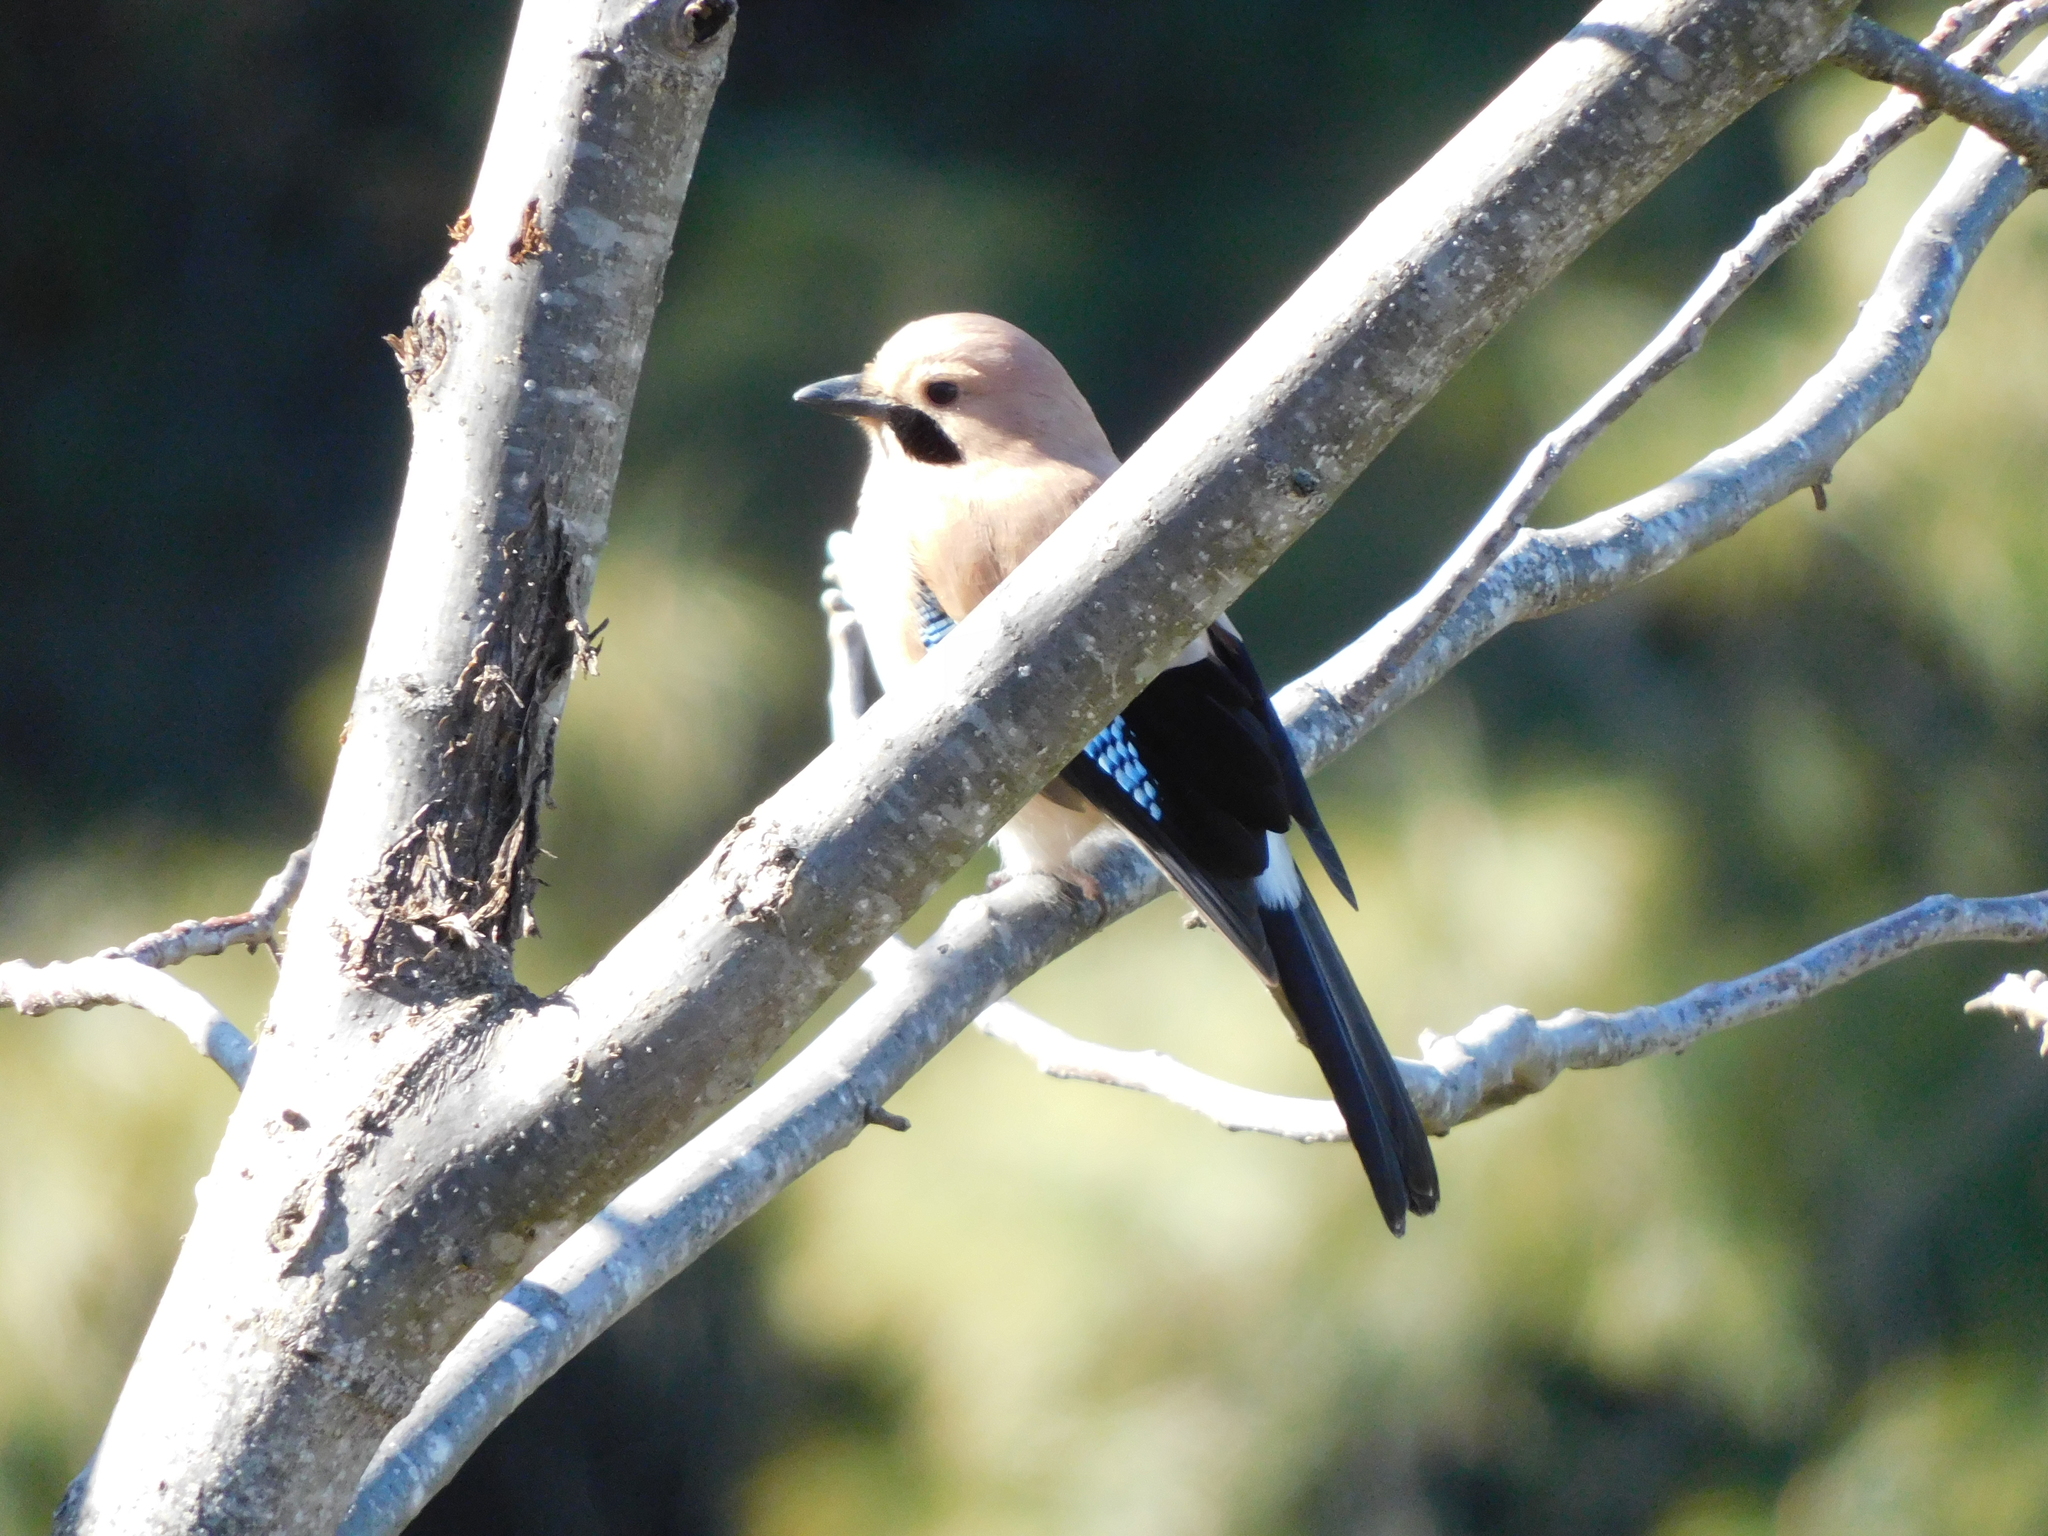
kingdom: Animalia
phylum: Chordata
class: Aves
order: Passeriformes
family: Corvidae
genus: Garrulus
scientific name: Garrulus glandarius
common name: Eurasian jay
